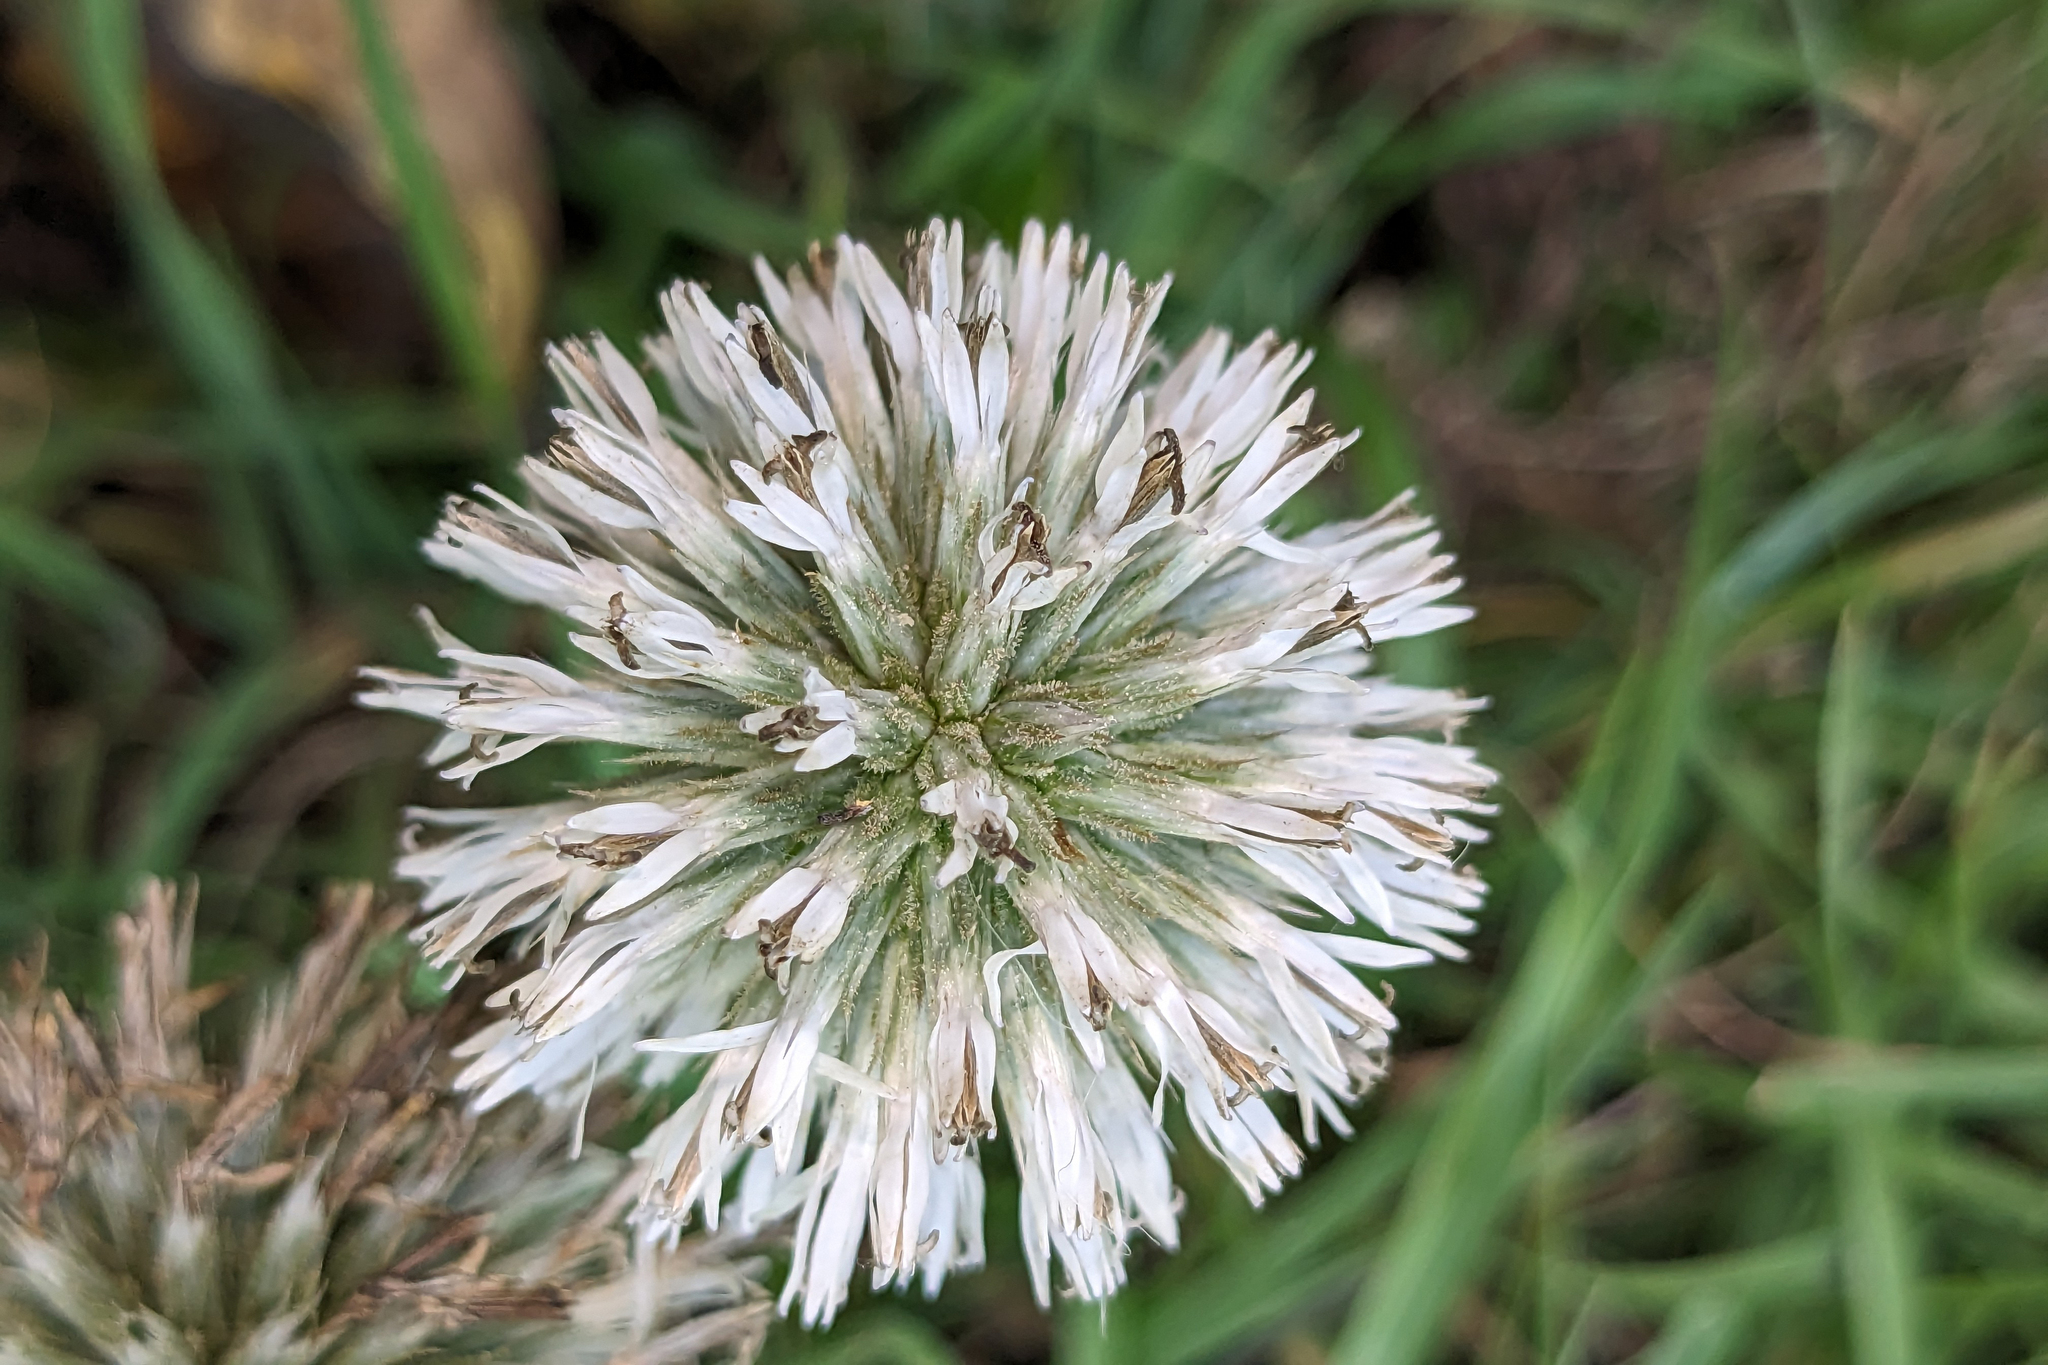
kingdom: Plantae
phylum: Tracheophyta
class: Magnoliopsida
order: Asterales
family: Asteraceae
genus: Echinops
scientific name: Echinops sphaerocephalus
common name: Glandular globe-thistle
